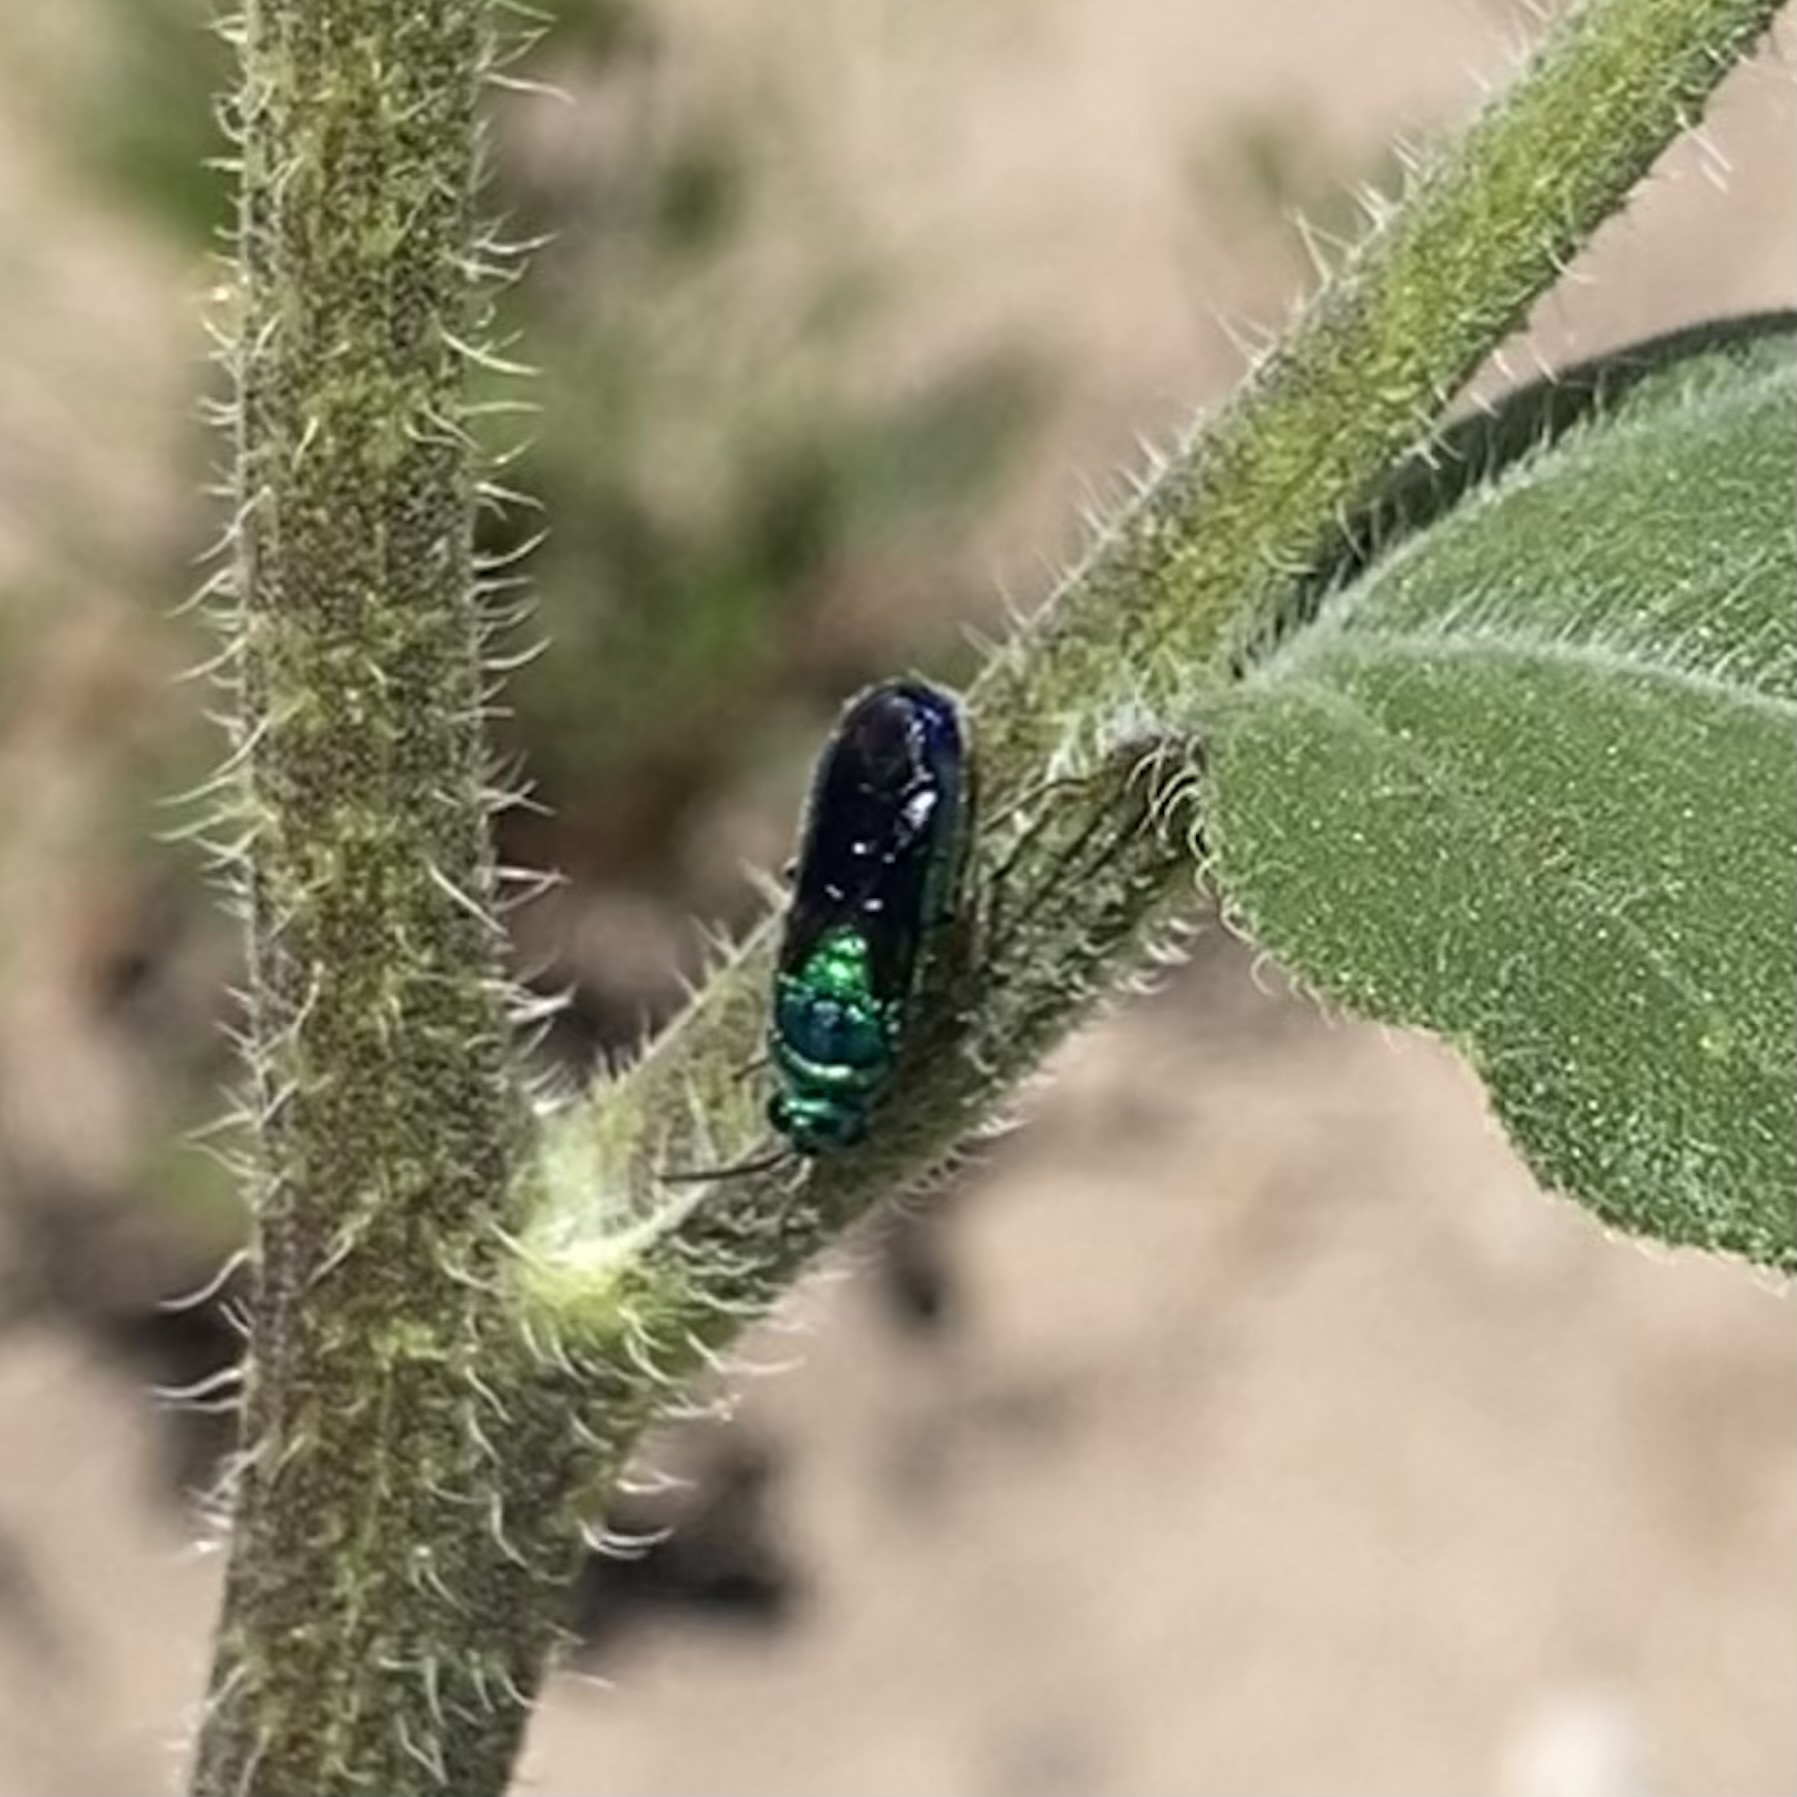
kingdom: Animalia
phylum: Arthropoda
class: Insecta
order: Hymenoptera
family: Chrysididae
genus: Chrysis
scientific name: Chrysis angolensis
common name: Cuckoo wasp
